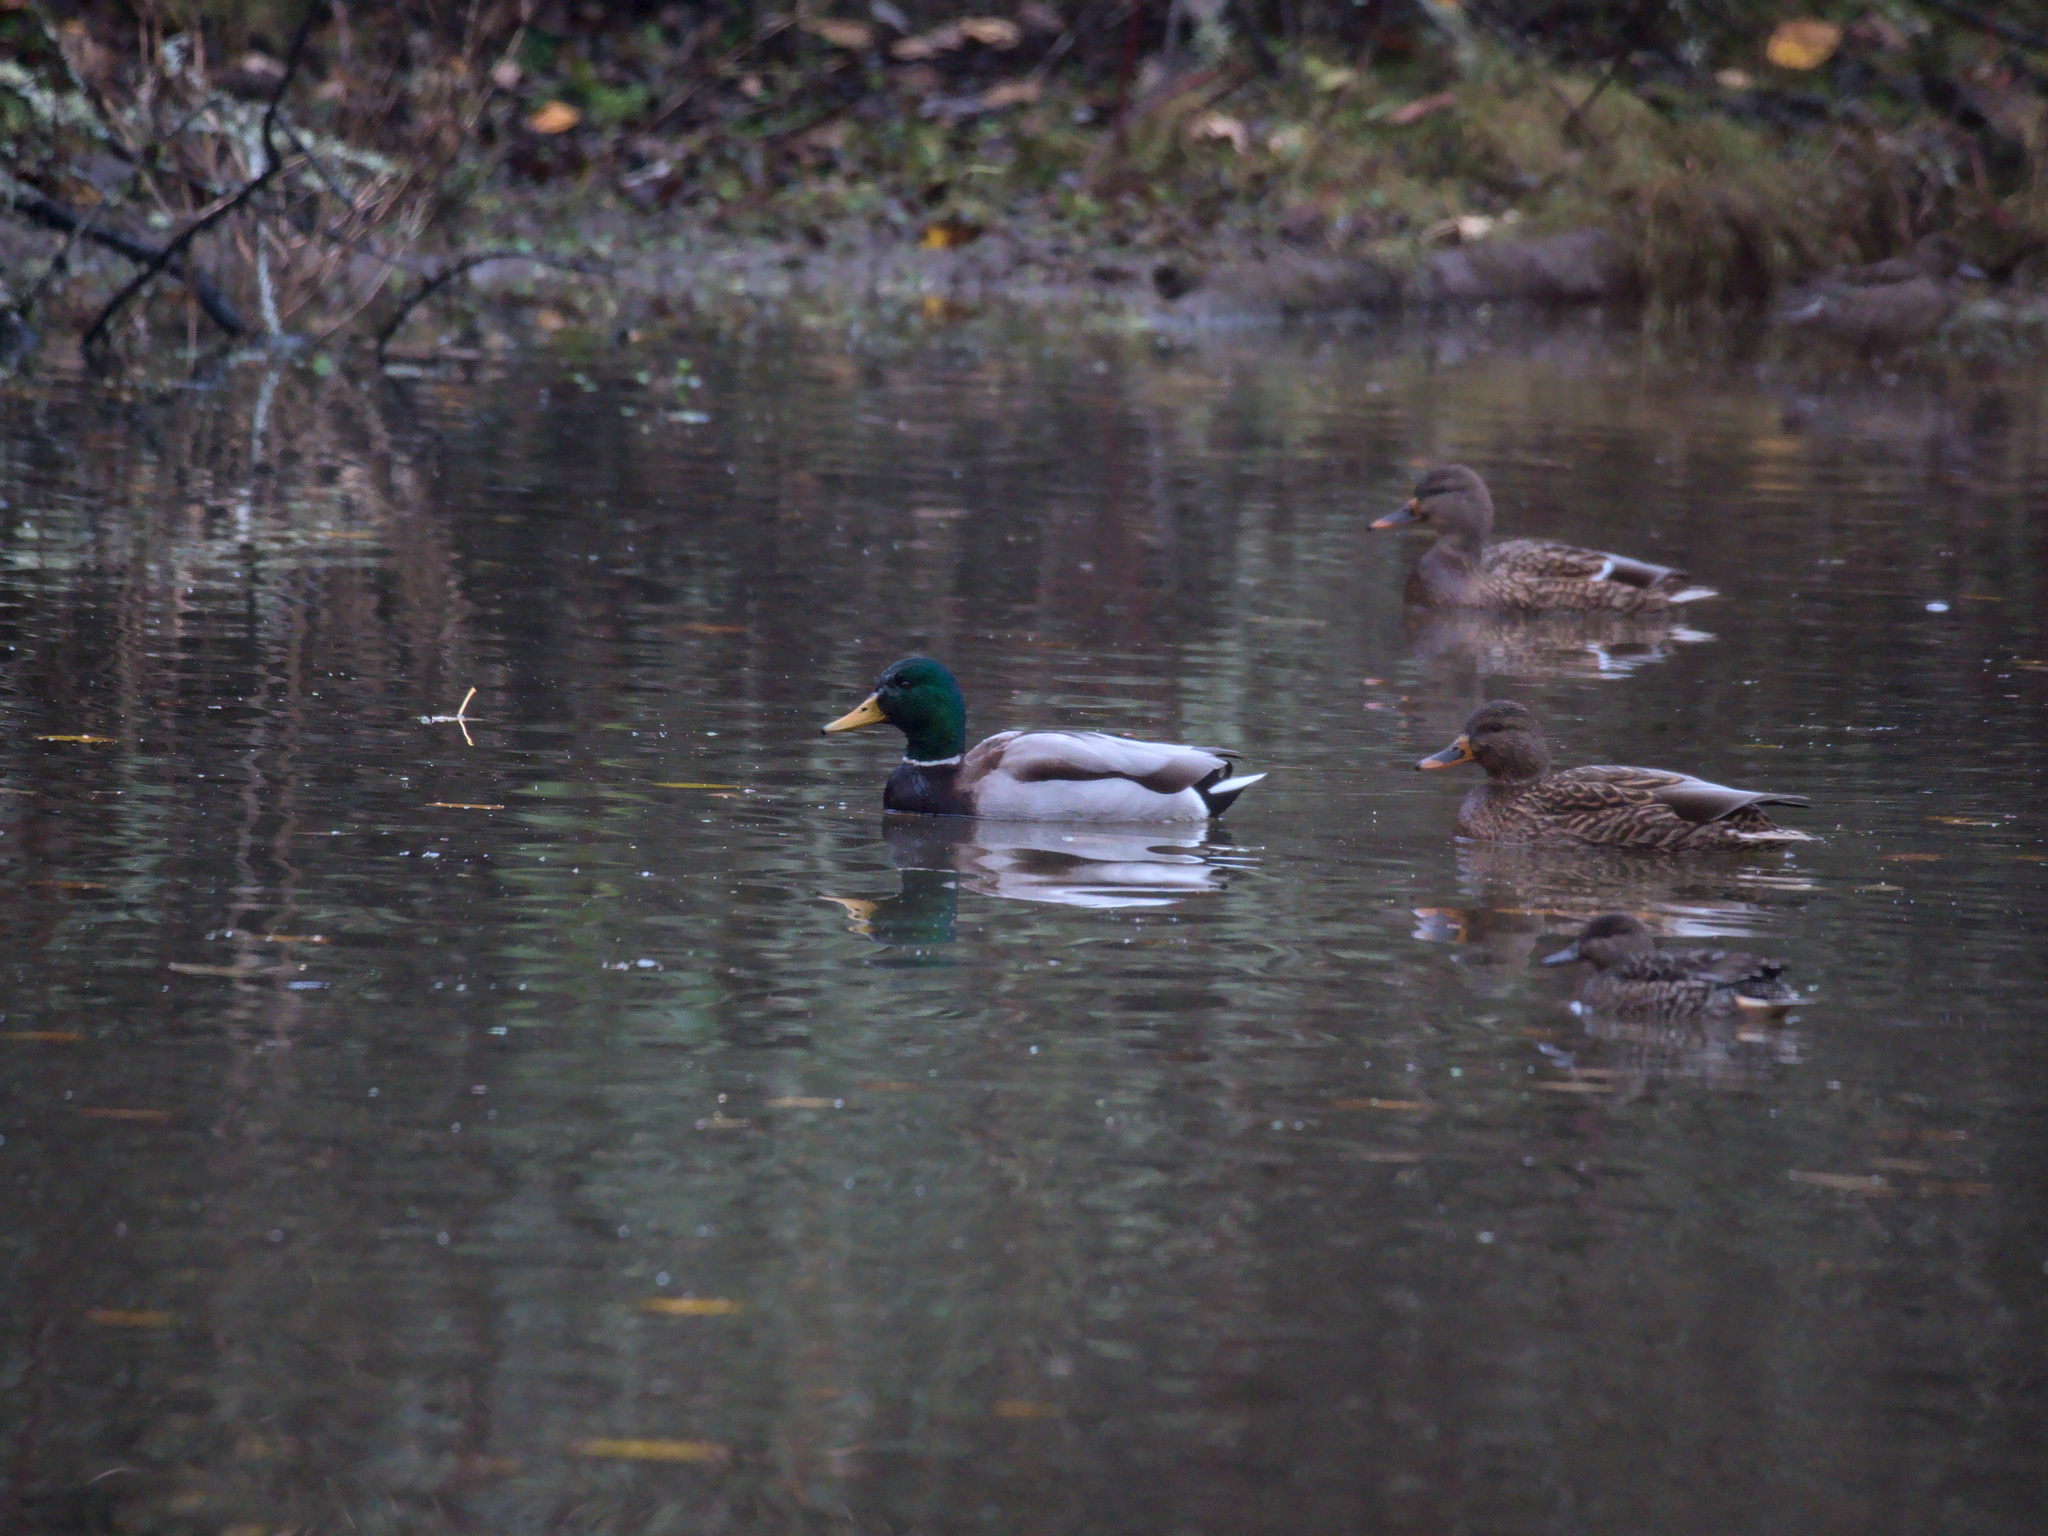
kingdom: Animalia
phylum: Chordata
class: Aves
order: Anseriformes
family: Anatidae
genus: Anas
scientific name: Anas platyrhynchos
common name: Mallard
